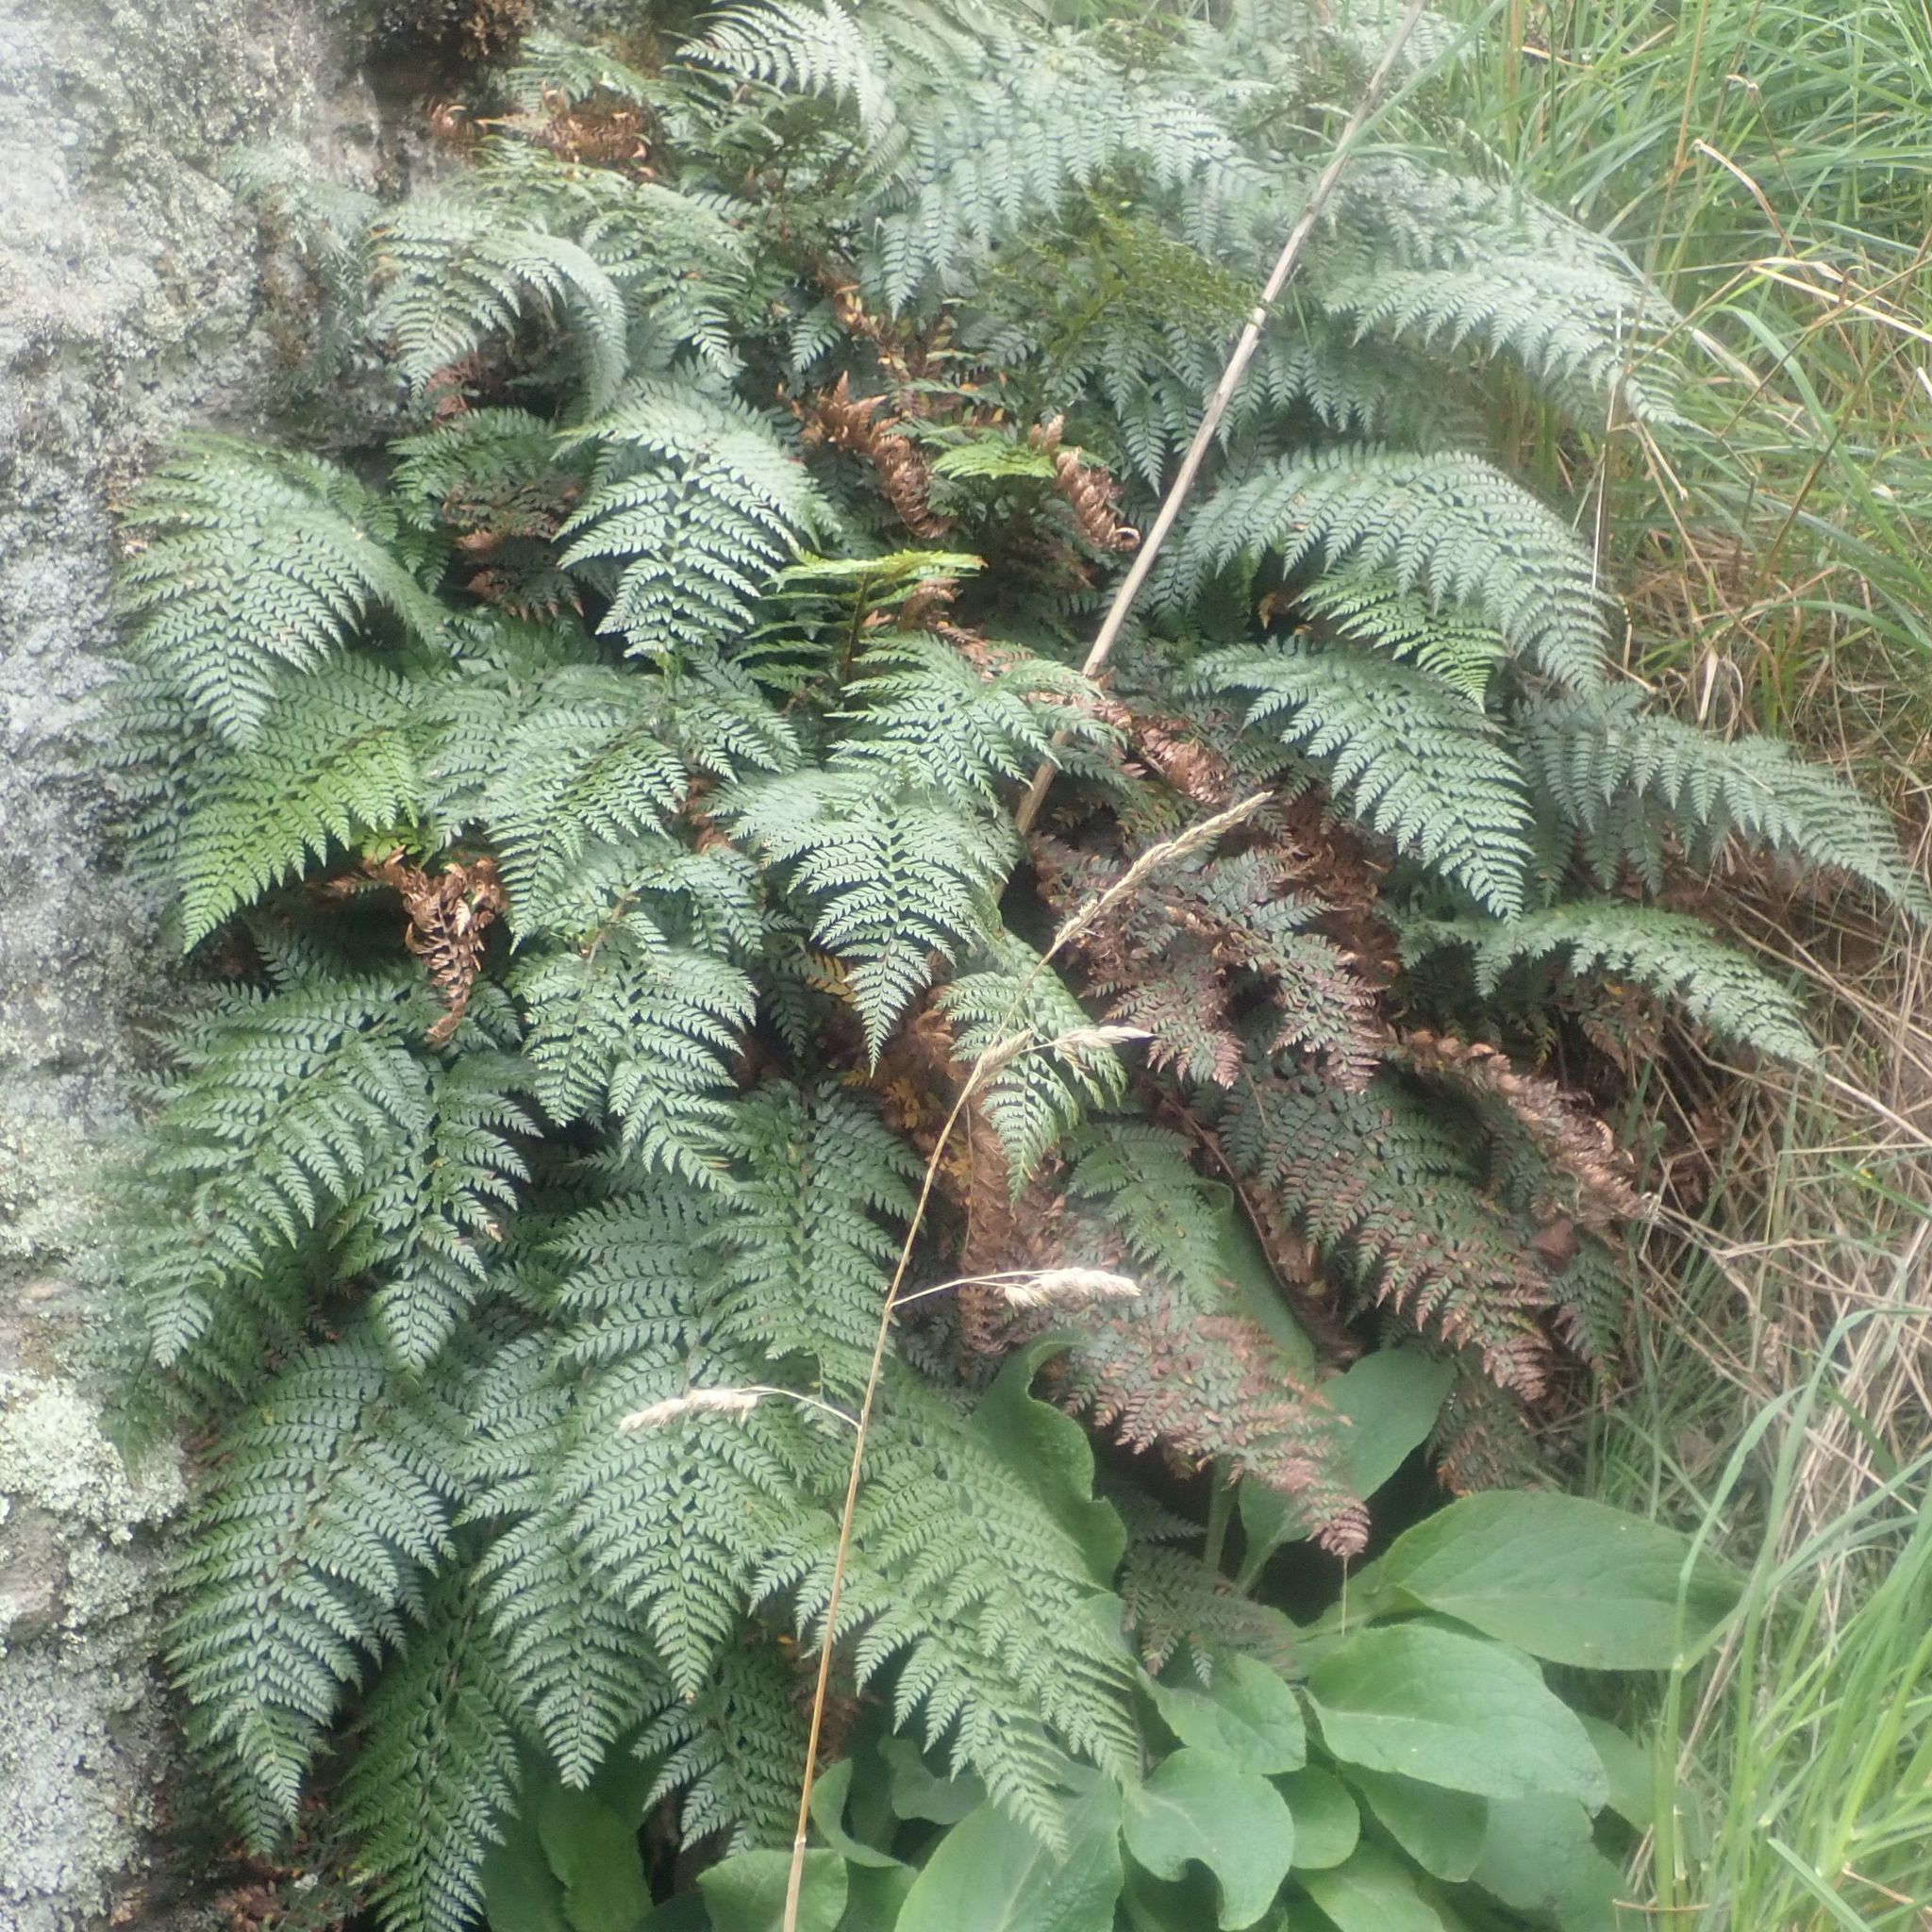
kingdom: Plantae
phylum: Tracheophyta
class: Polypodiopsida
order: Polypodiales
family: Dryopteridaceae
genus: Polystichum
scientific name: Polystichum vestitum
